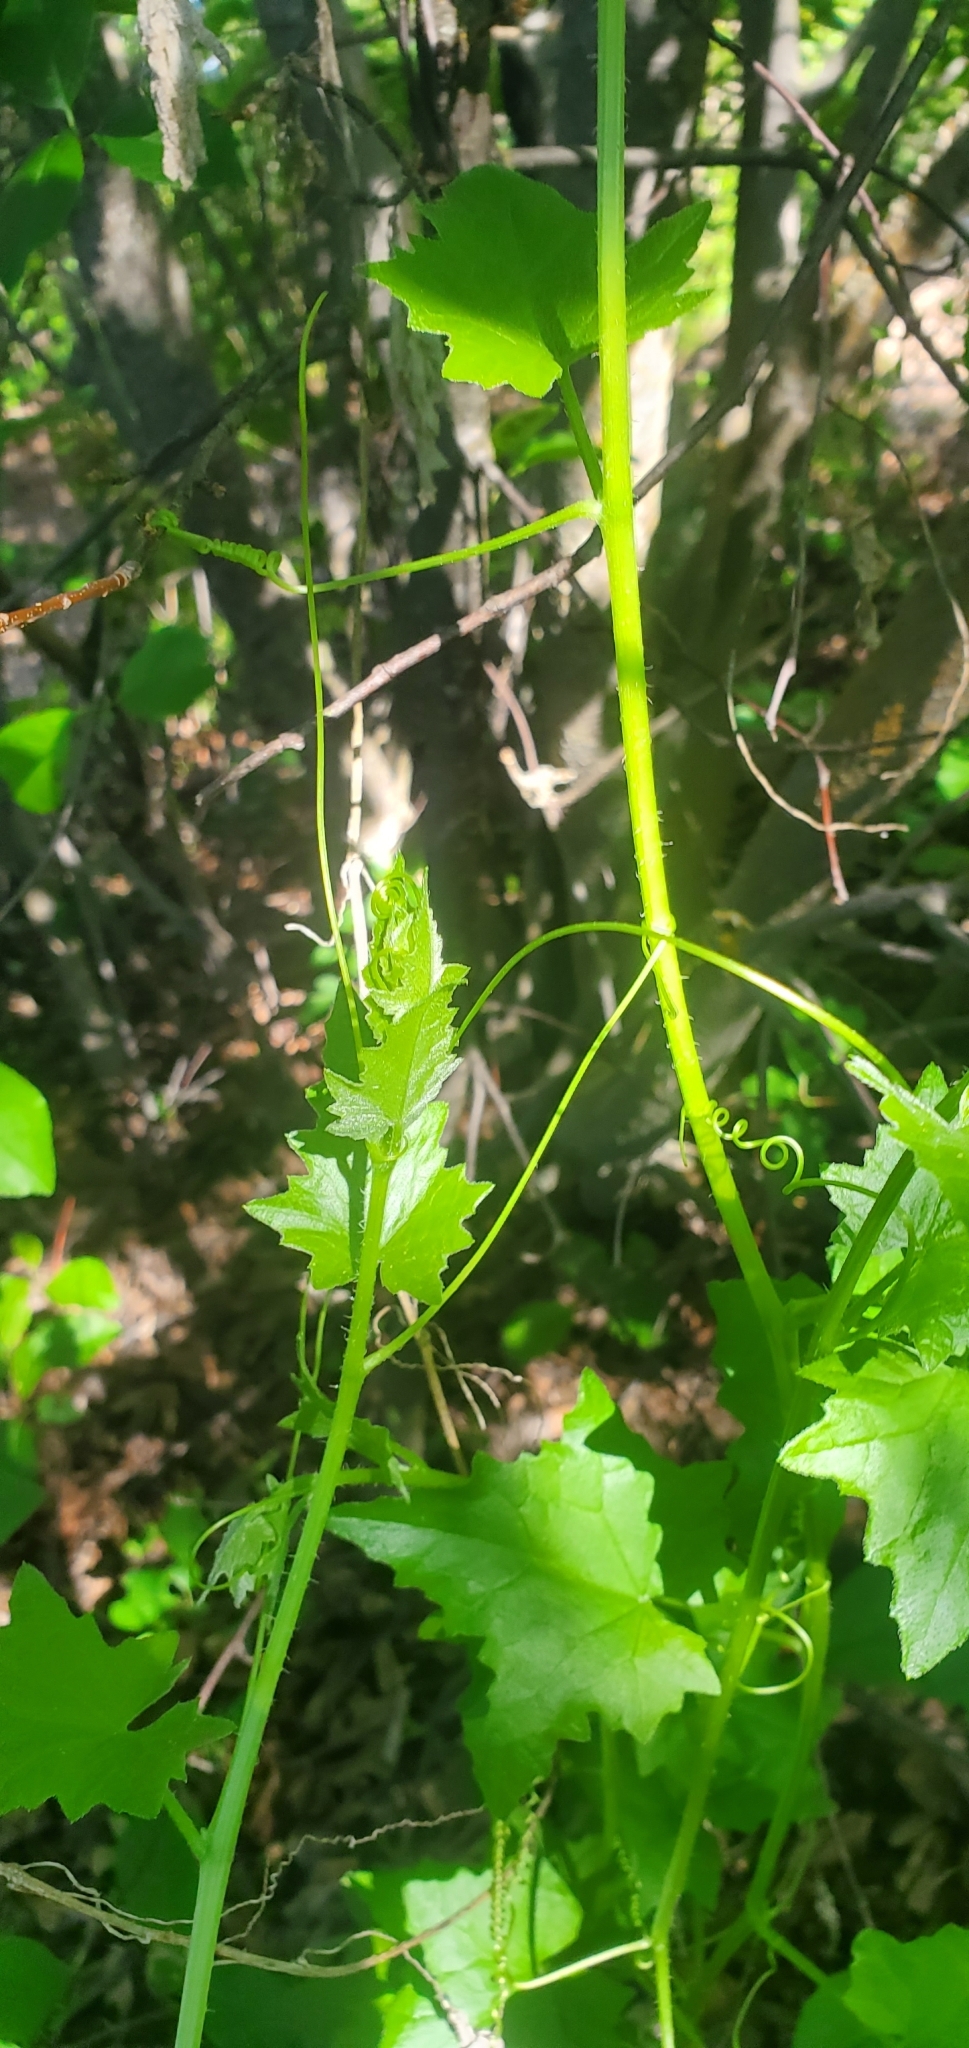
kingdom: Plantae
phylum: Tracheophyta
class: Magnoliopsida
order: Cucurbitales
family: Cucurbitaceae
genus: Bryonia
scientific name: Bryonia alba
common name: White bryony
